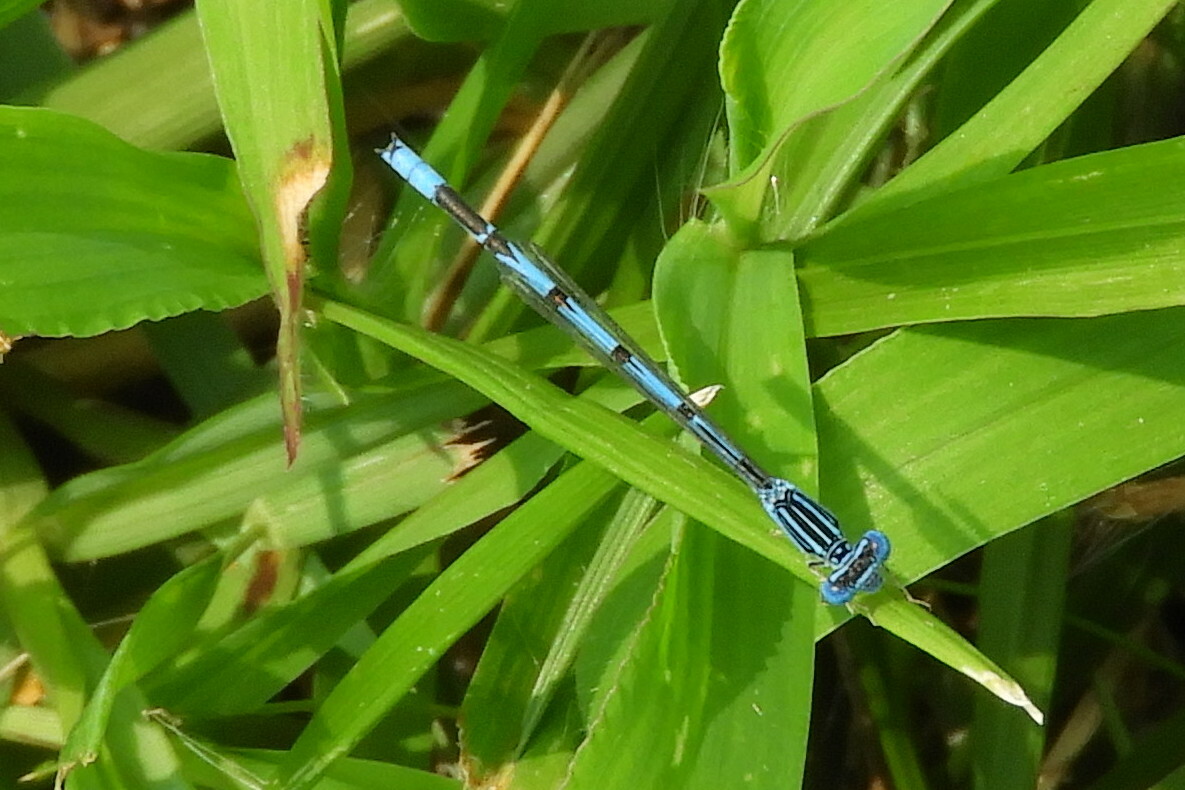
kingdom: Animalia
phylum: Arthropoda
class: Insecta
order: Odonata
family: Coenagrionidae
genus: Enallagma
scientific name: Enallagma basidens
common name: Double-striped bluet
